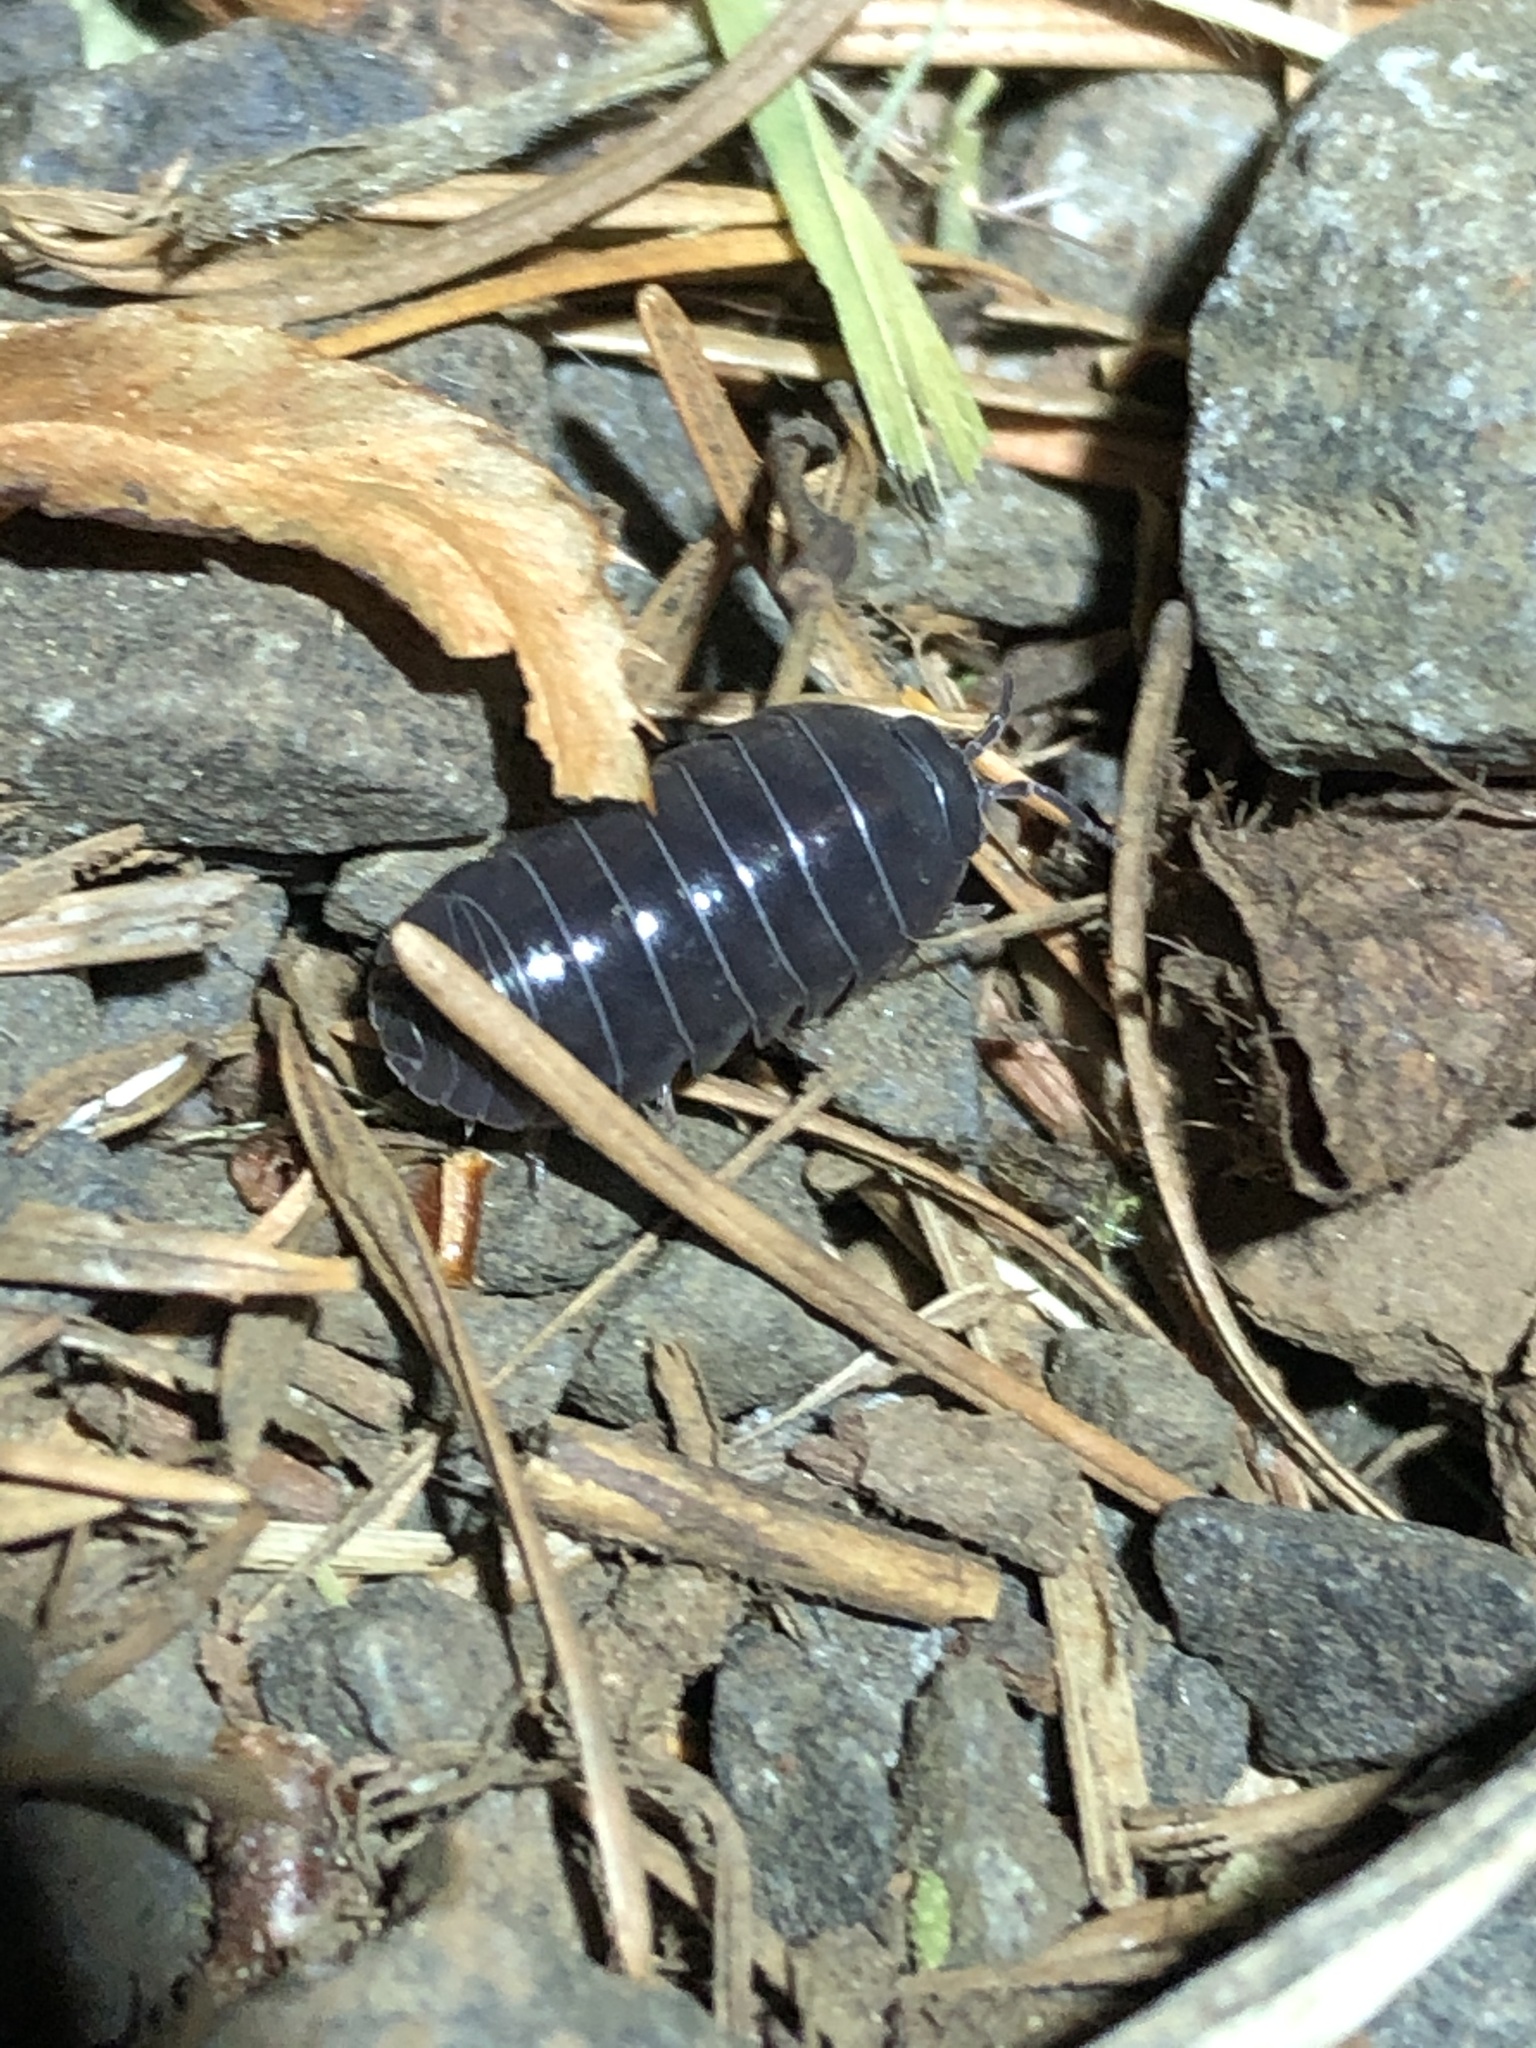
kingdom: Animalia
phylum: Arthropoda
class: Malacostraca
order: Isopoda
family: Armadillidiidae
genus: Armadillidium
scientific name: Armadillidium vulgare
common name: Common pill woodlouse
